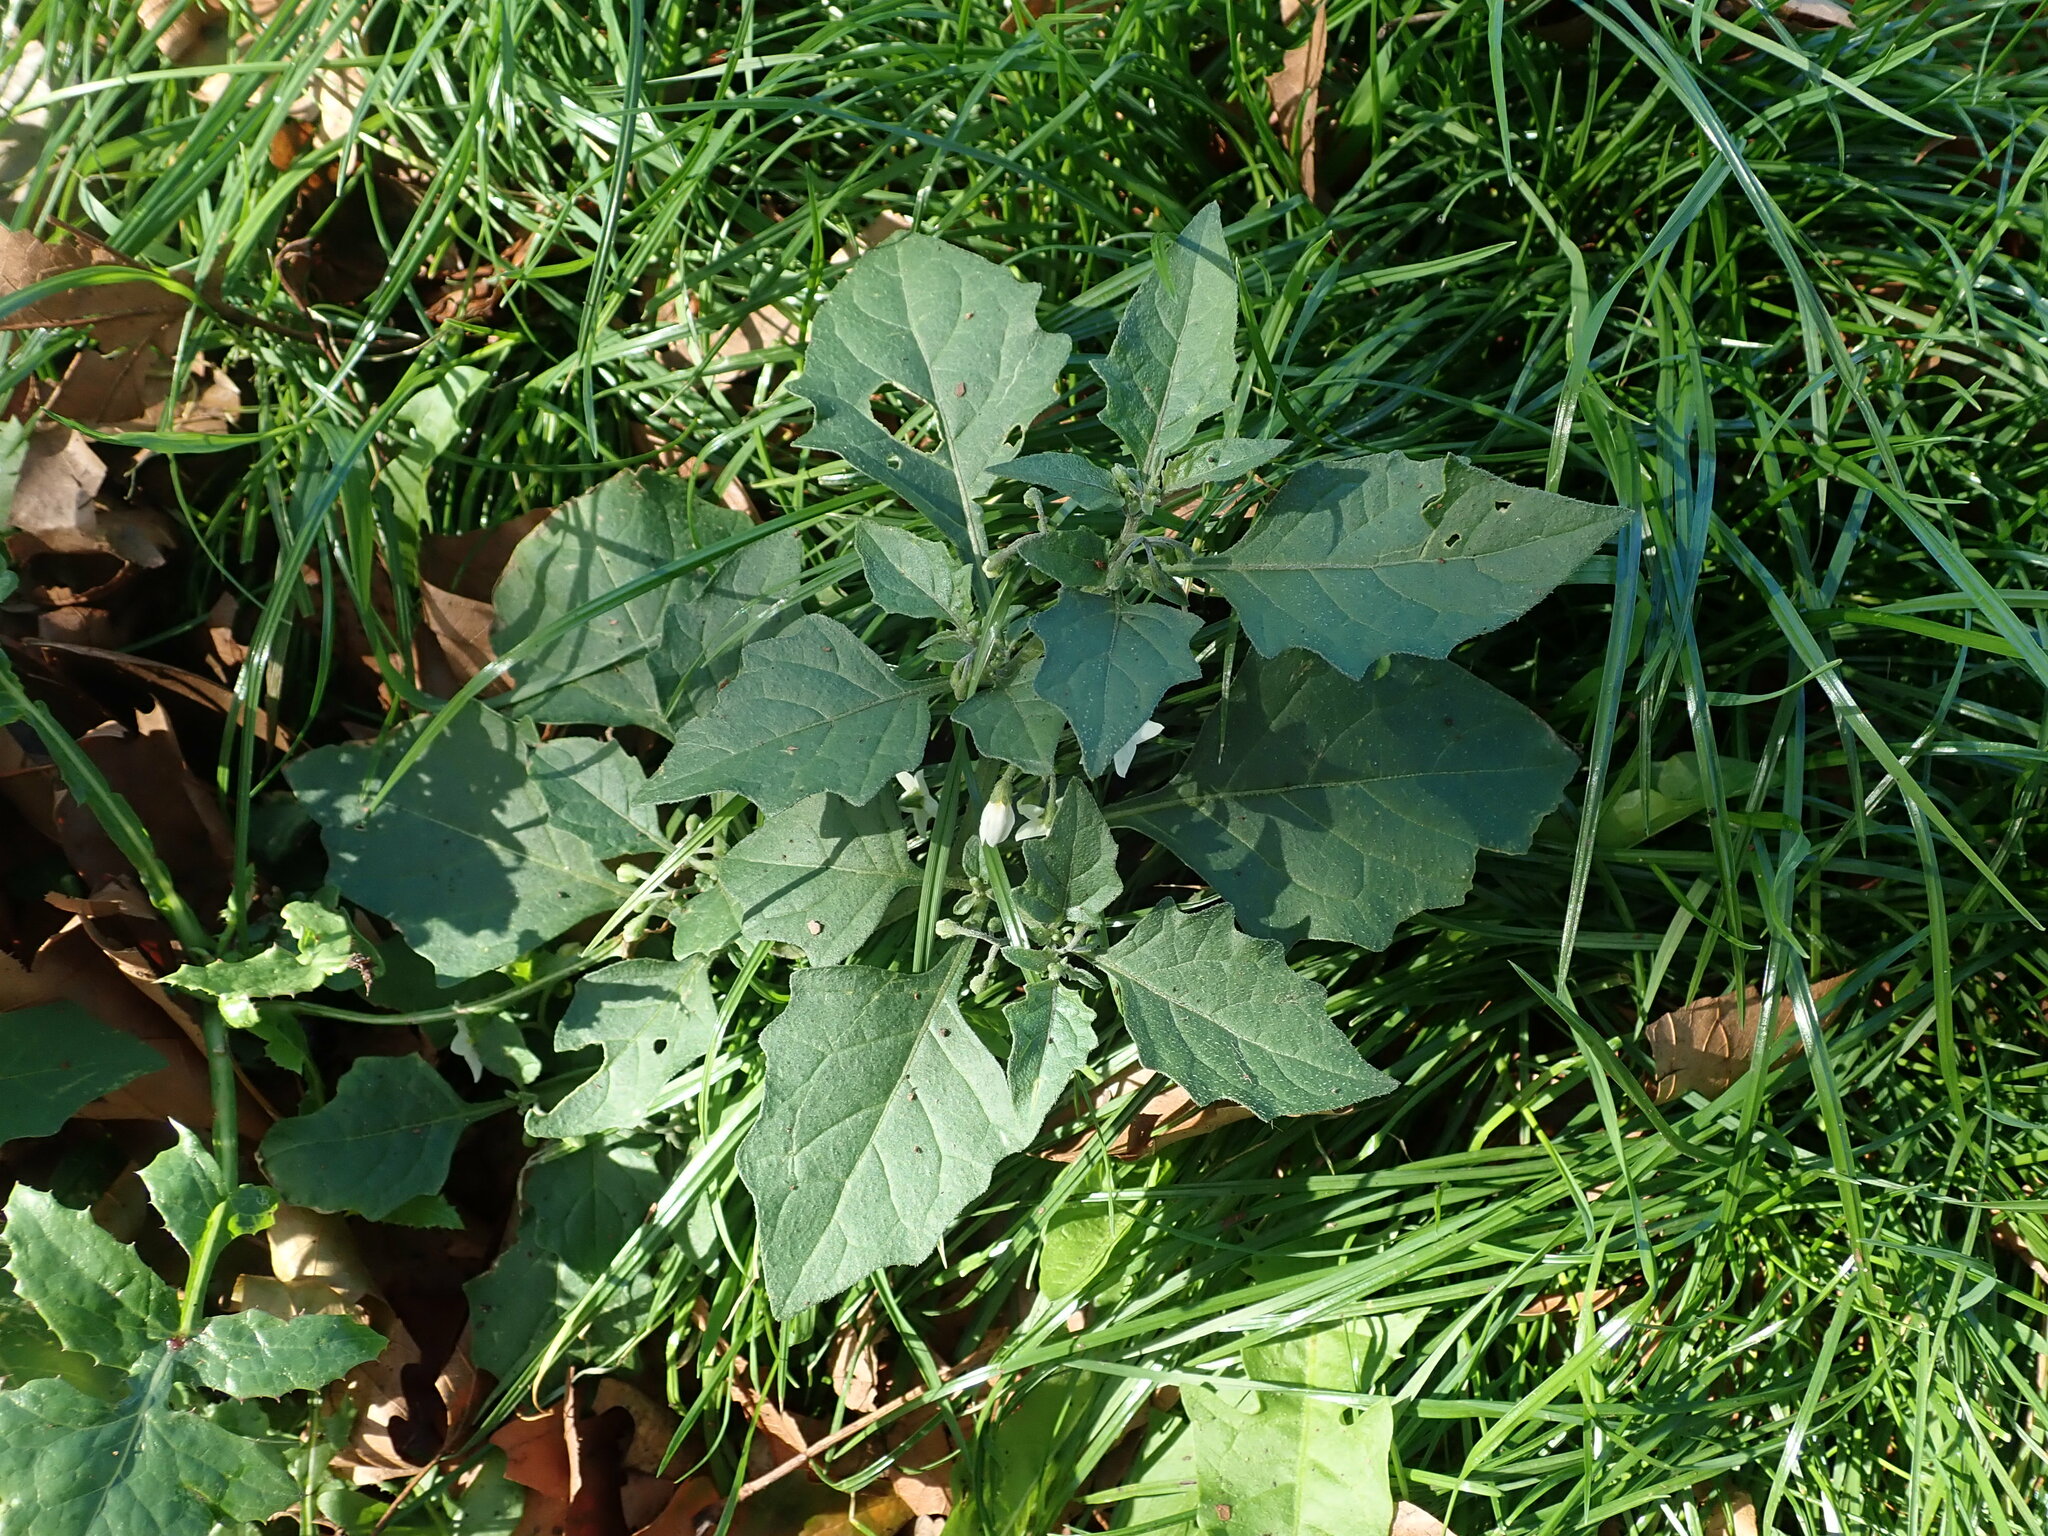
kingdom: Plantae
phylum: Tracheophyta
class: Magnoliopsida
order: Solanales
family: Solanaceae
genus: Solanum
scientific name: Solanum nigrum
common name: Black nightshade
